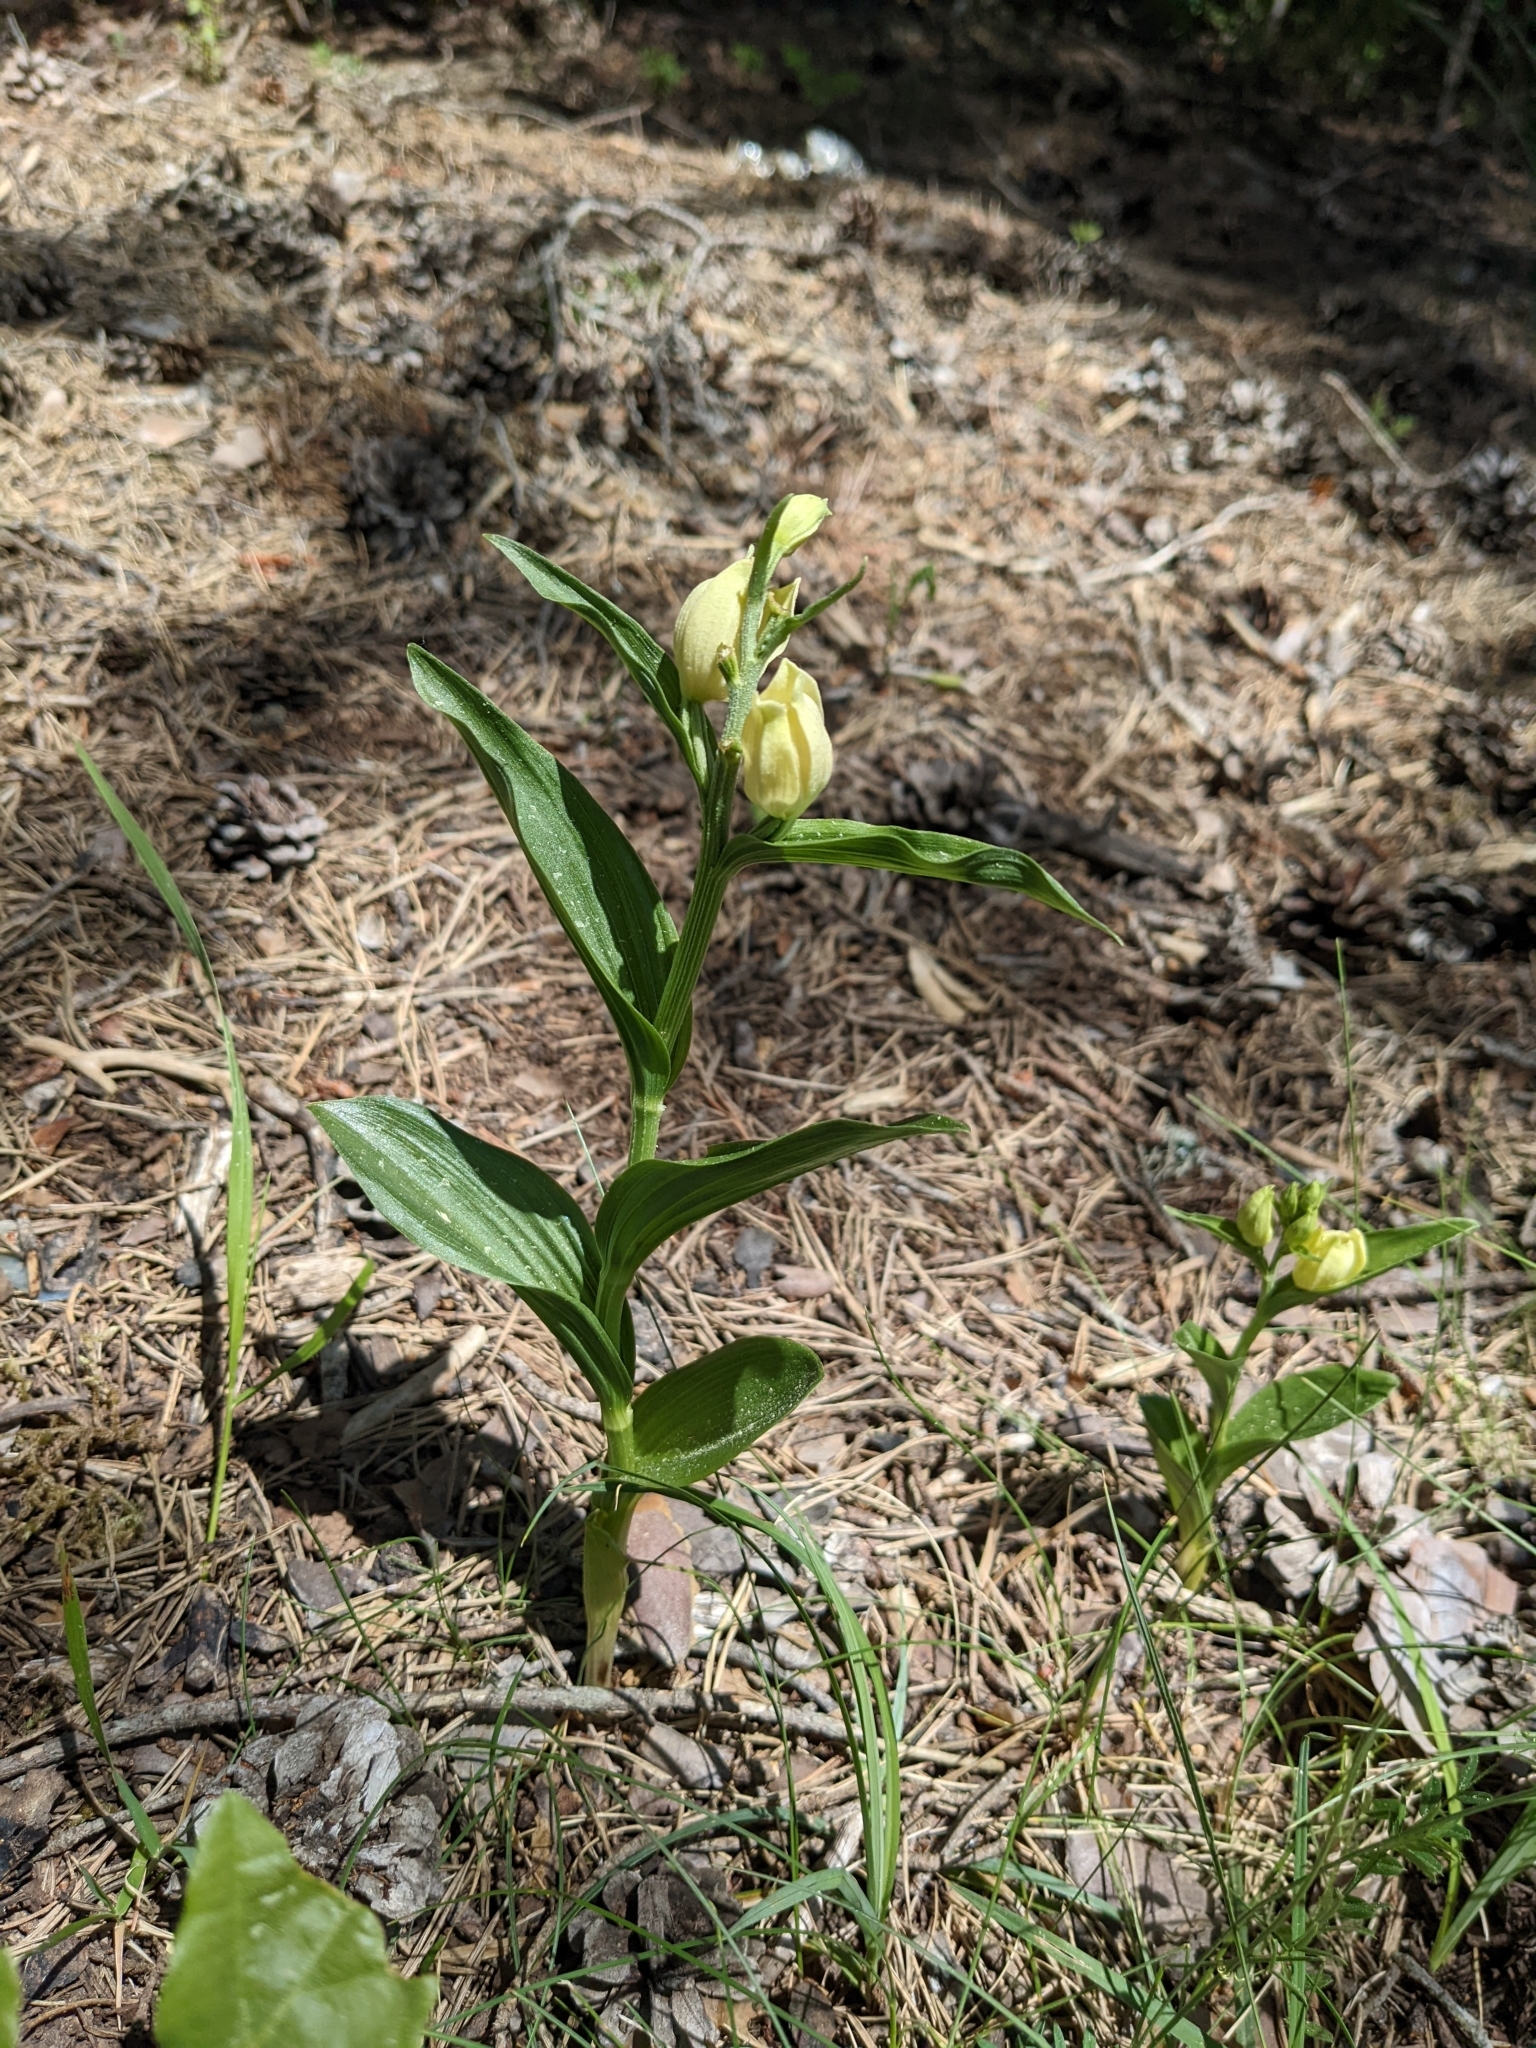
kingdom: Plantae
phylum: Tracheophyta
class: Liliopsida
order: Asparagales
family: Orchidaceae
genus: Cephalanthera
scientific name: Cephalanthera damasonium
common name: White helleborine
